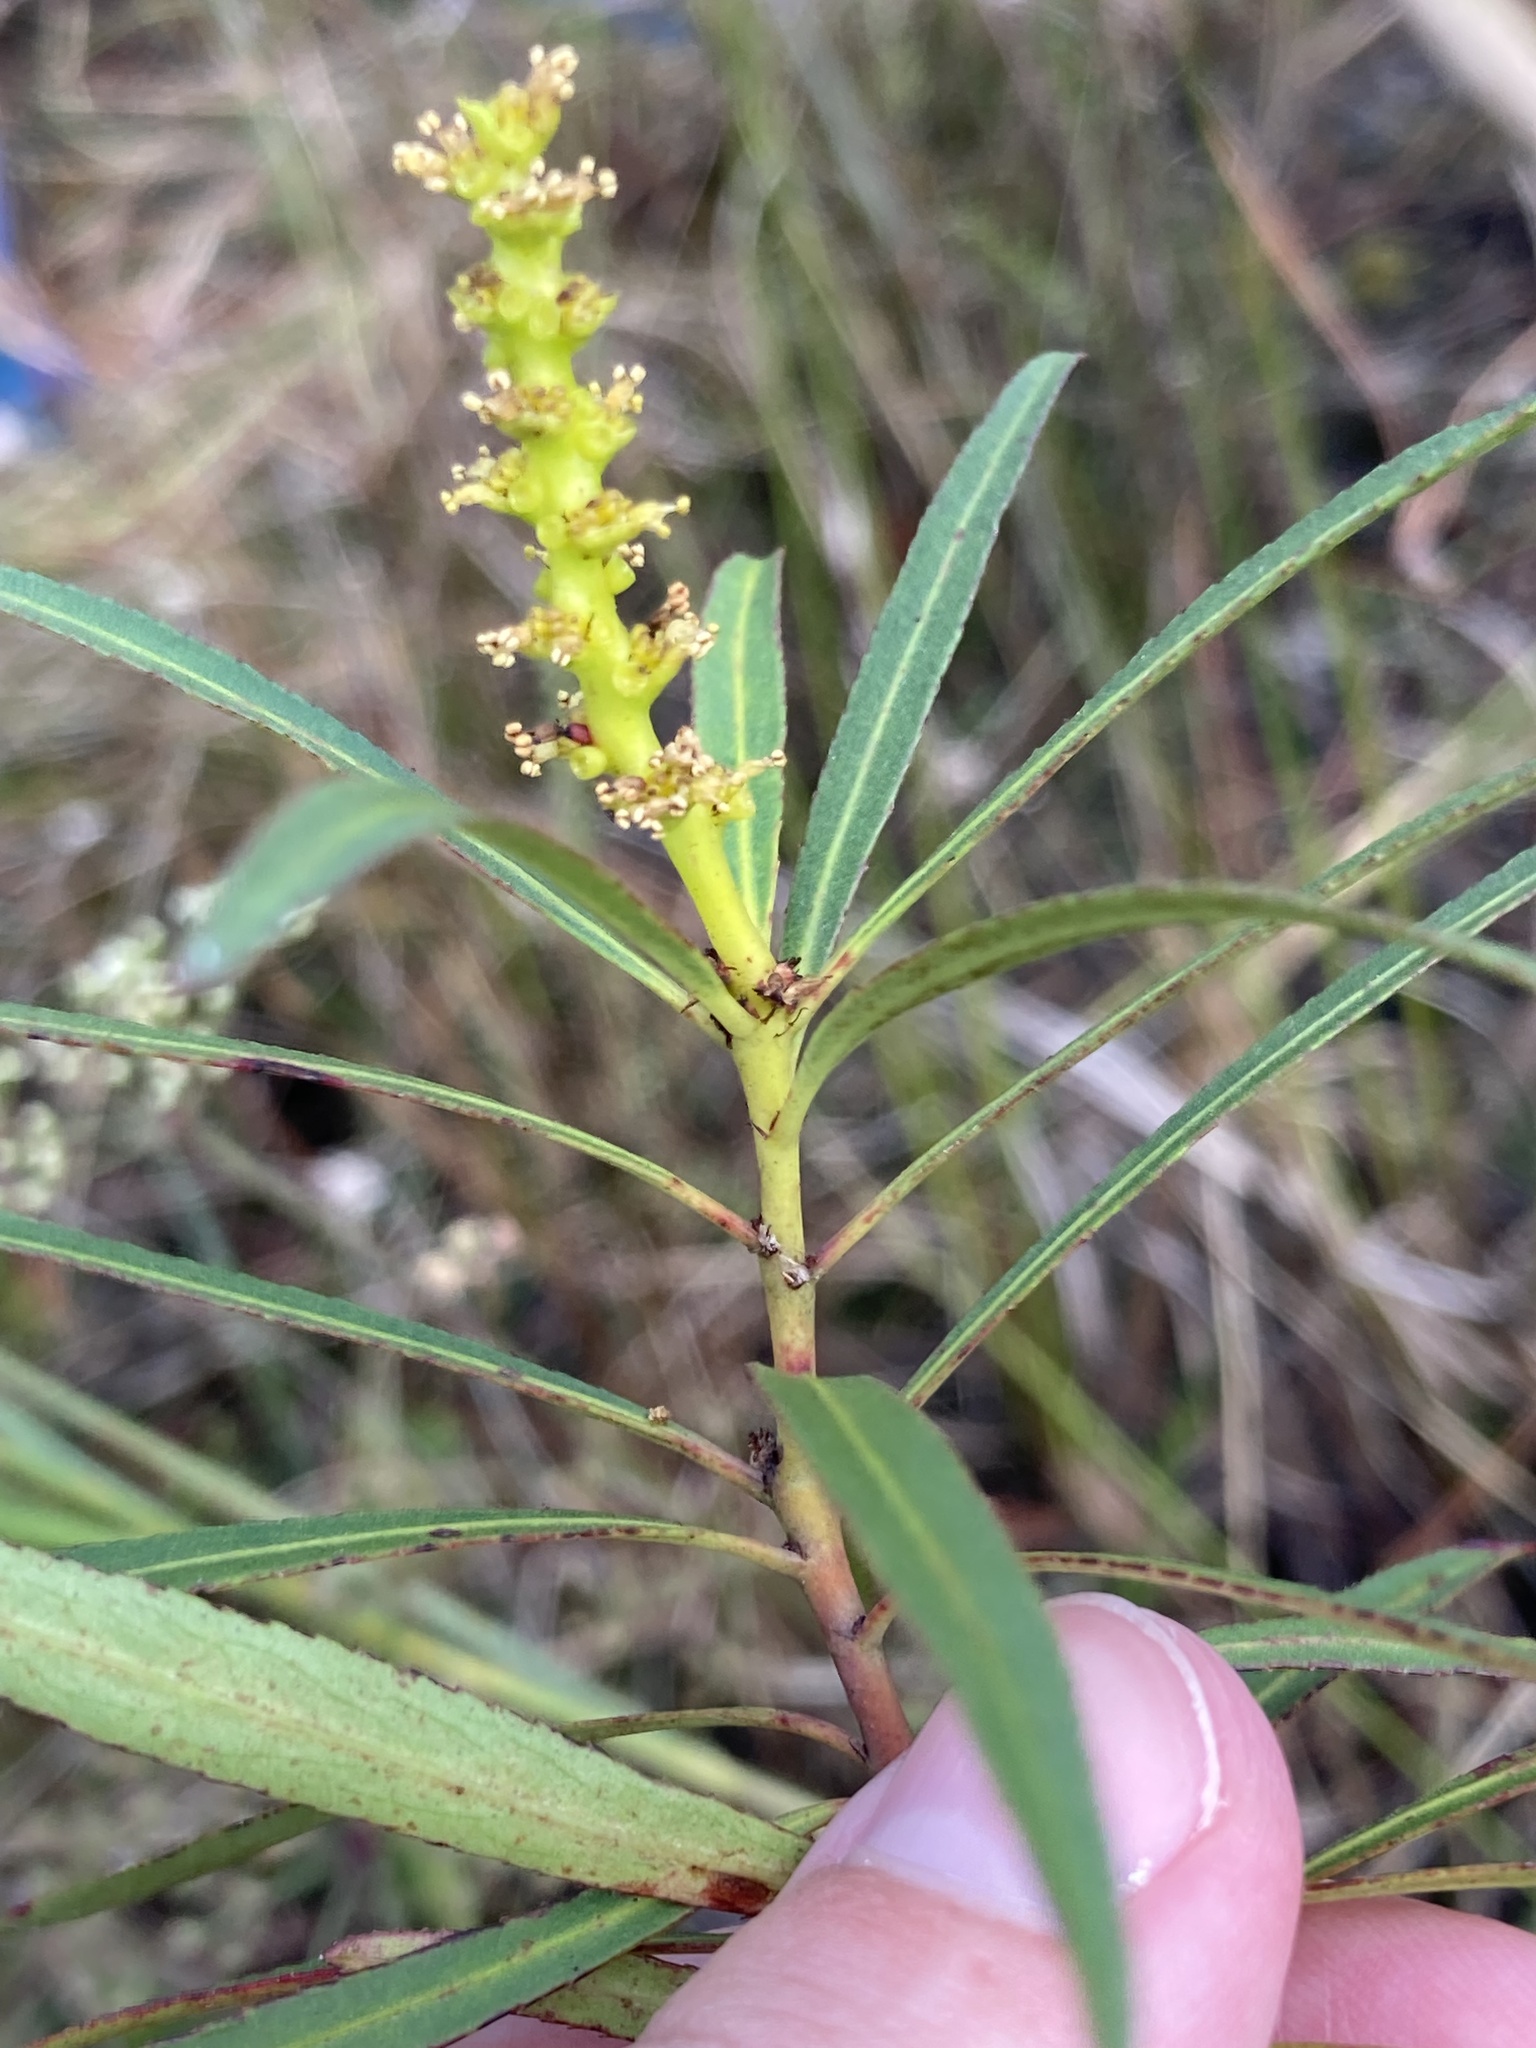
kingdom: Plantae
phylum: Tracheophyta
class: Magnoliopsida
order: Malpighiales
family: Euphorbiaceae
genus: Stillingia
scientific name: Stillingia aquatica
